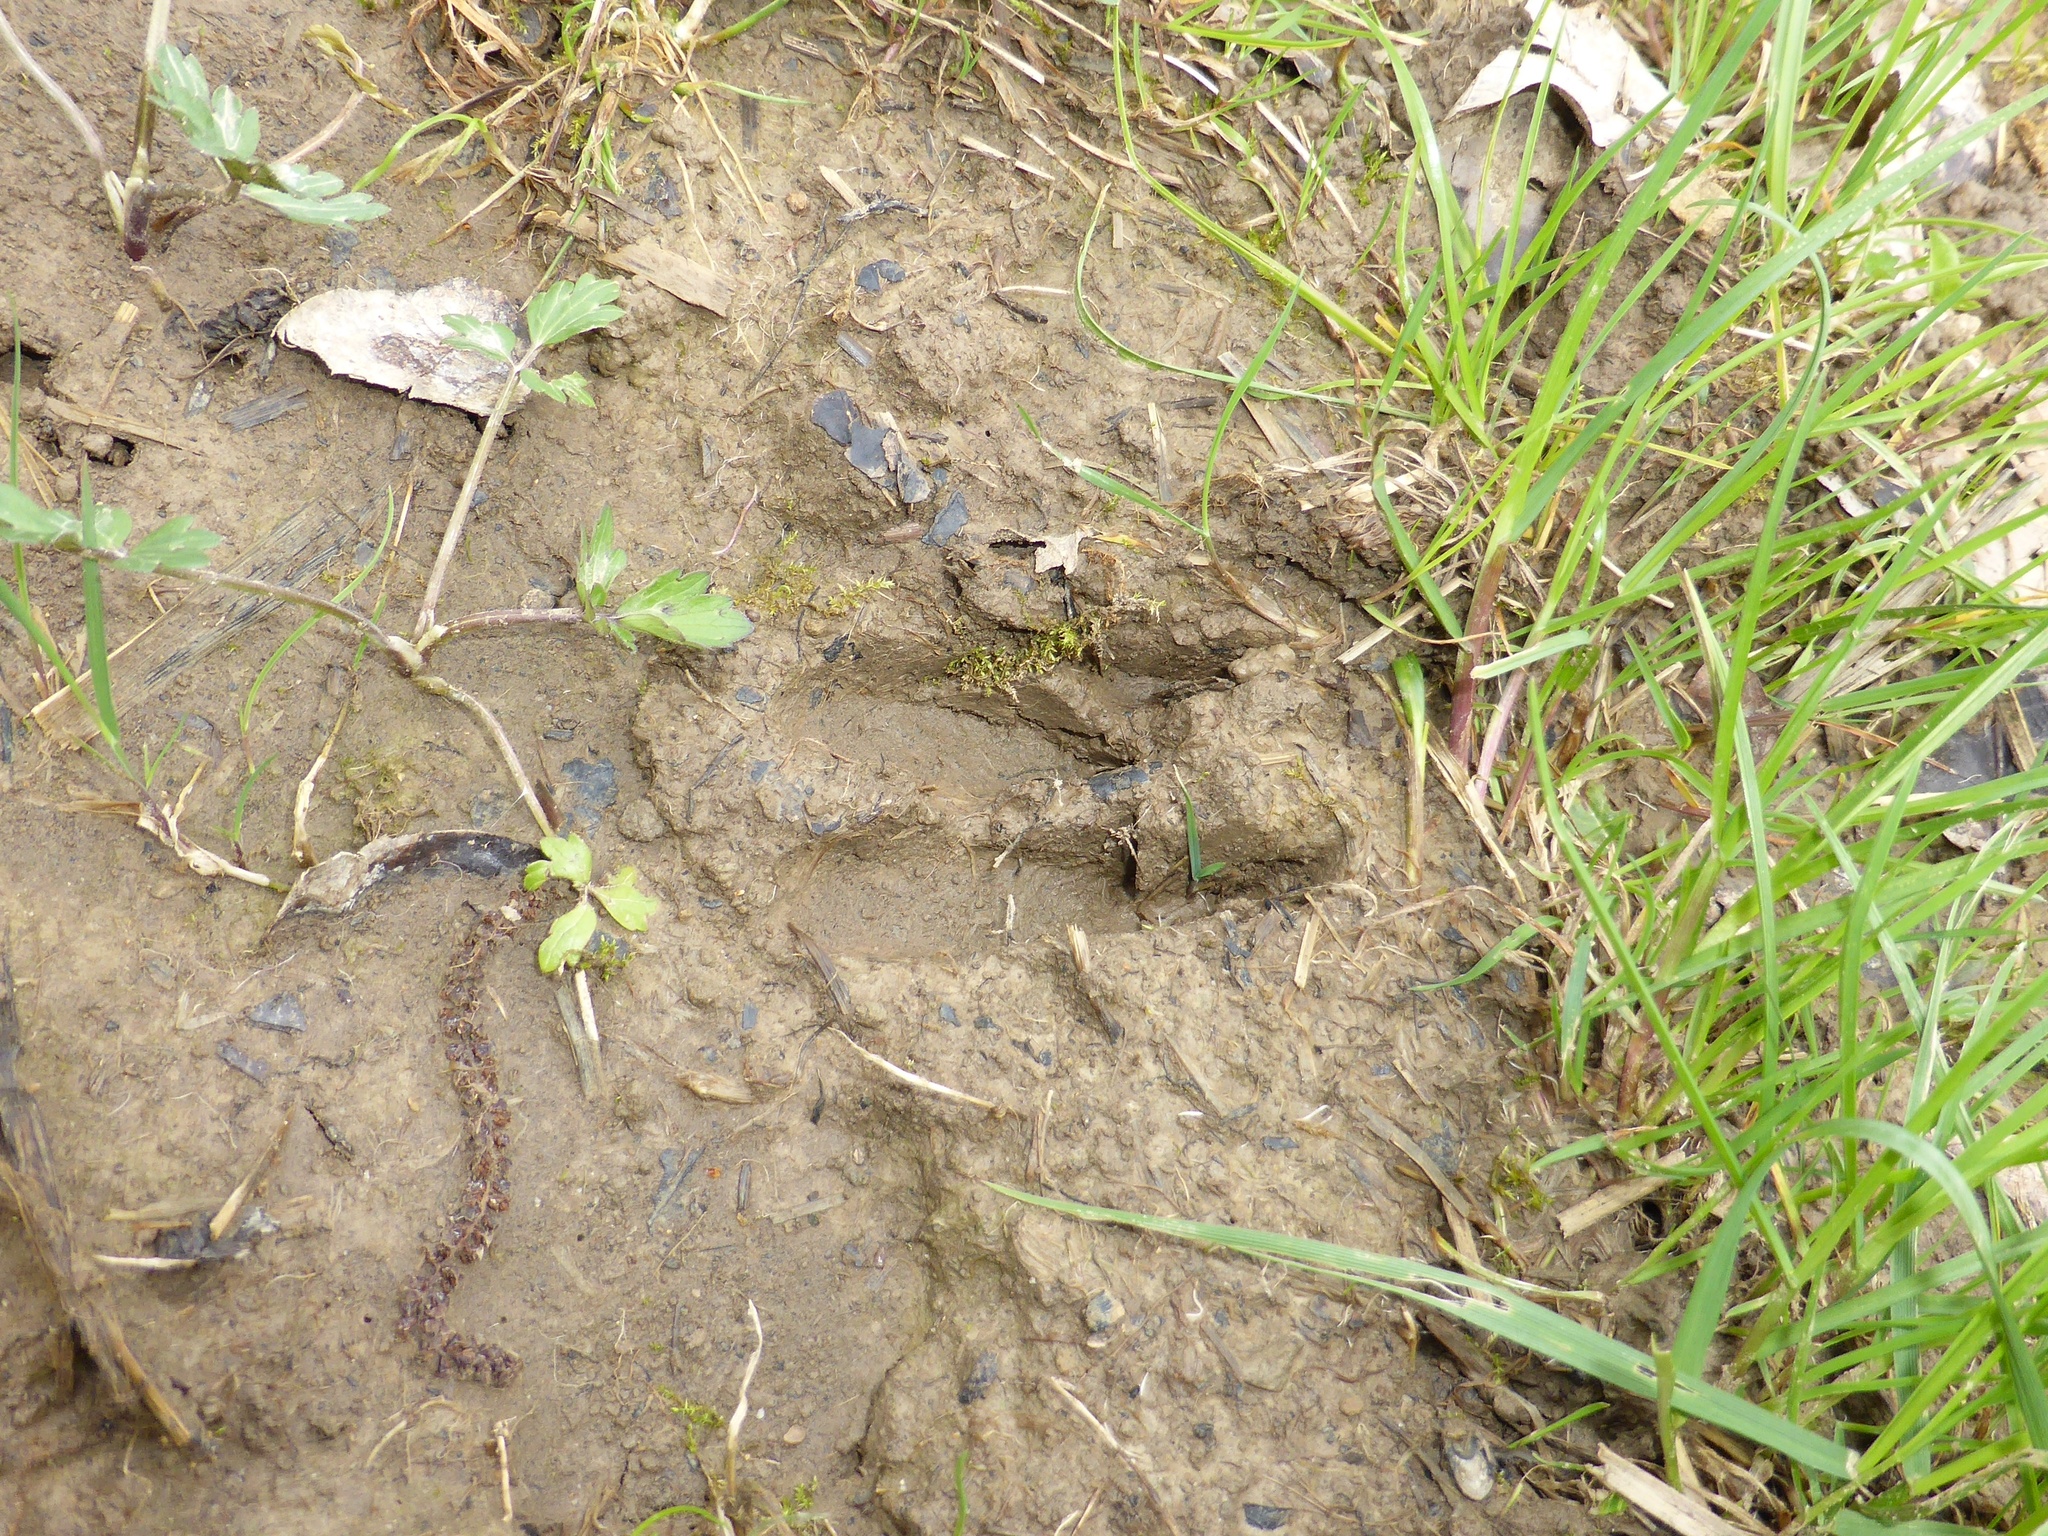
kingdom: Animalia
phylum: Chordata
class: Mammalia
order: Artiodactyla
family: Cervidae
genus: Capreolus
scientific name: Capreolus capreolus
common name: Western roe deer
